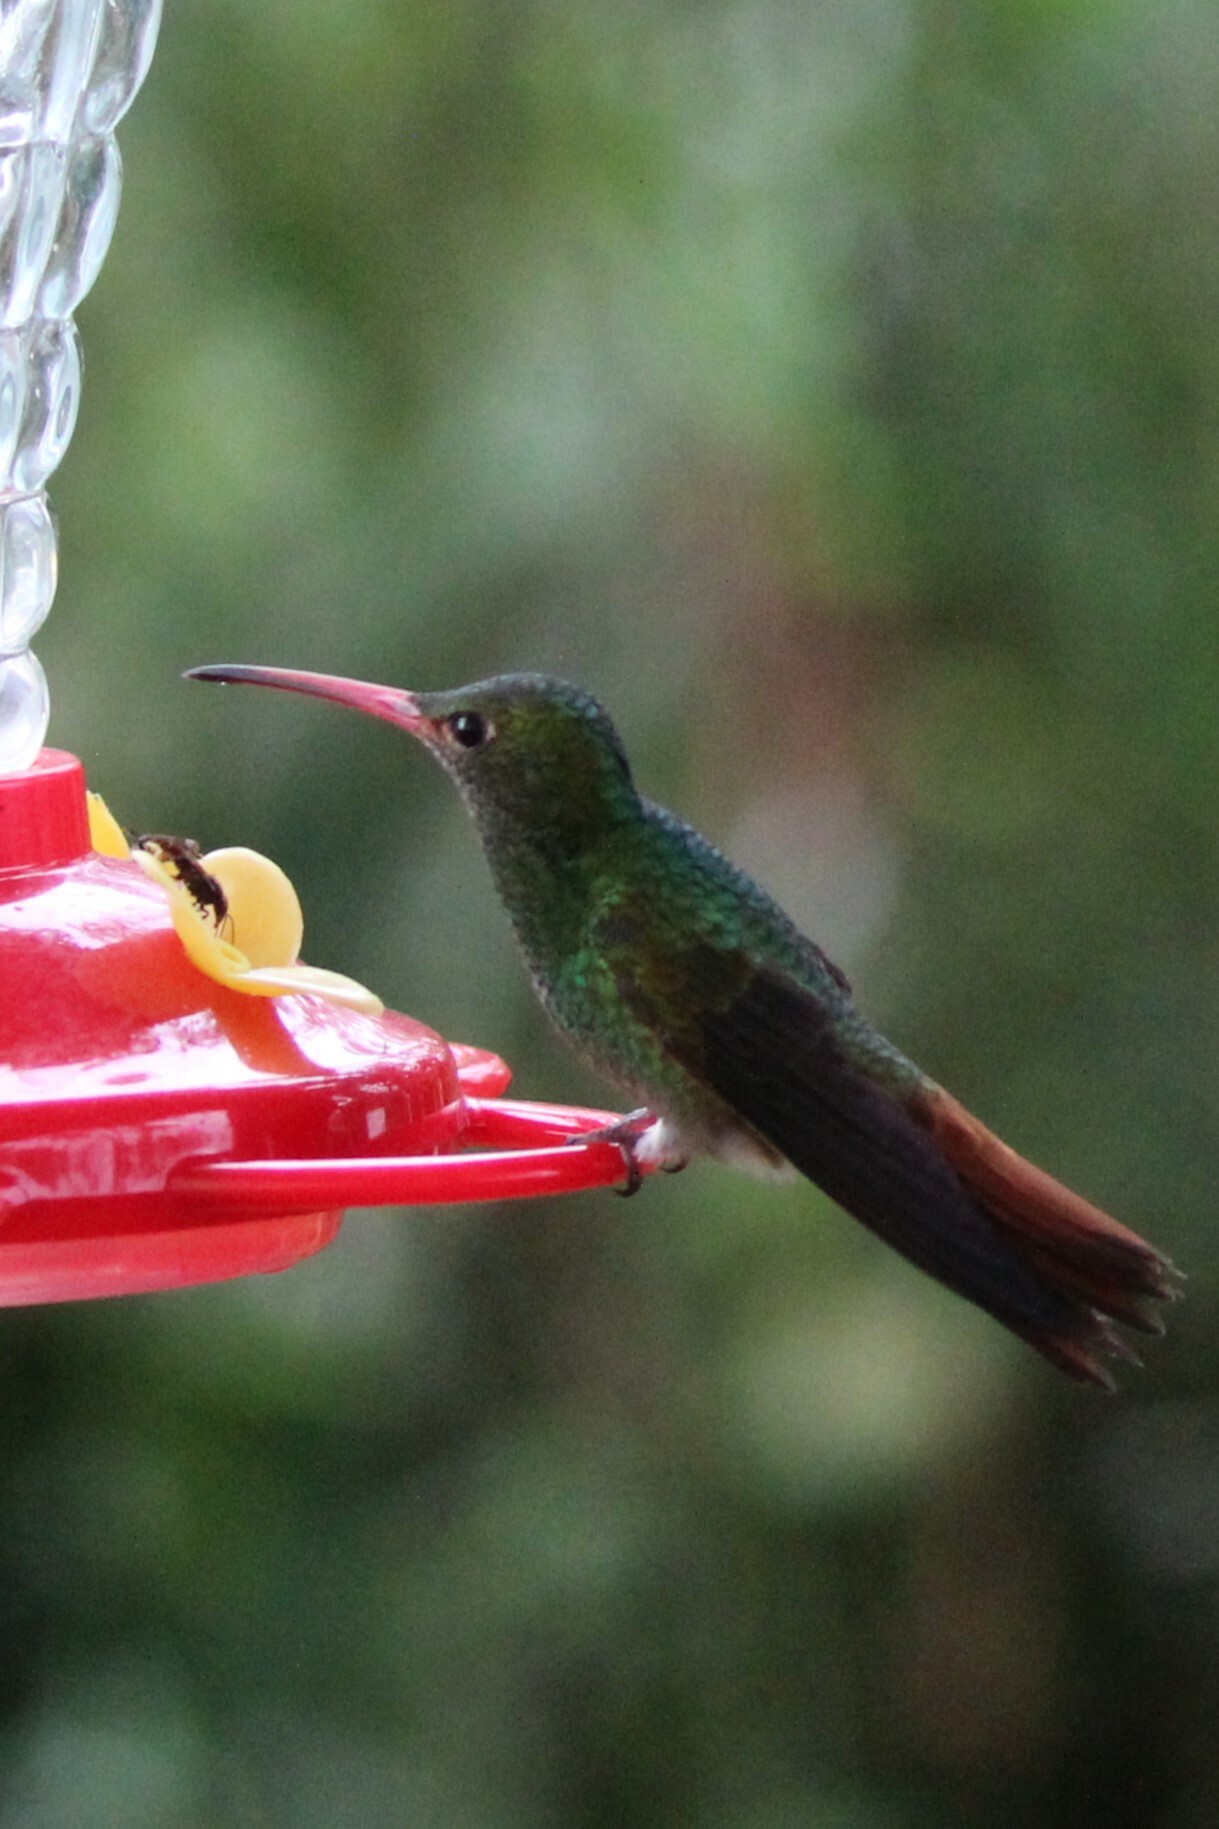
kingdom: Animalia
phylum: Chordata
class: Aves
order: Apodiformes
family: Trochilidae
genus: Amazilia
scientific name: Amazilia tzacatl
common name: Rufous-tailed hummingbird
